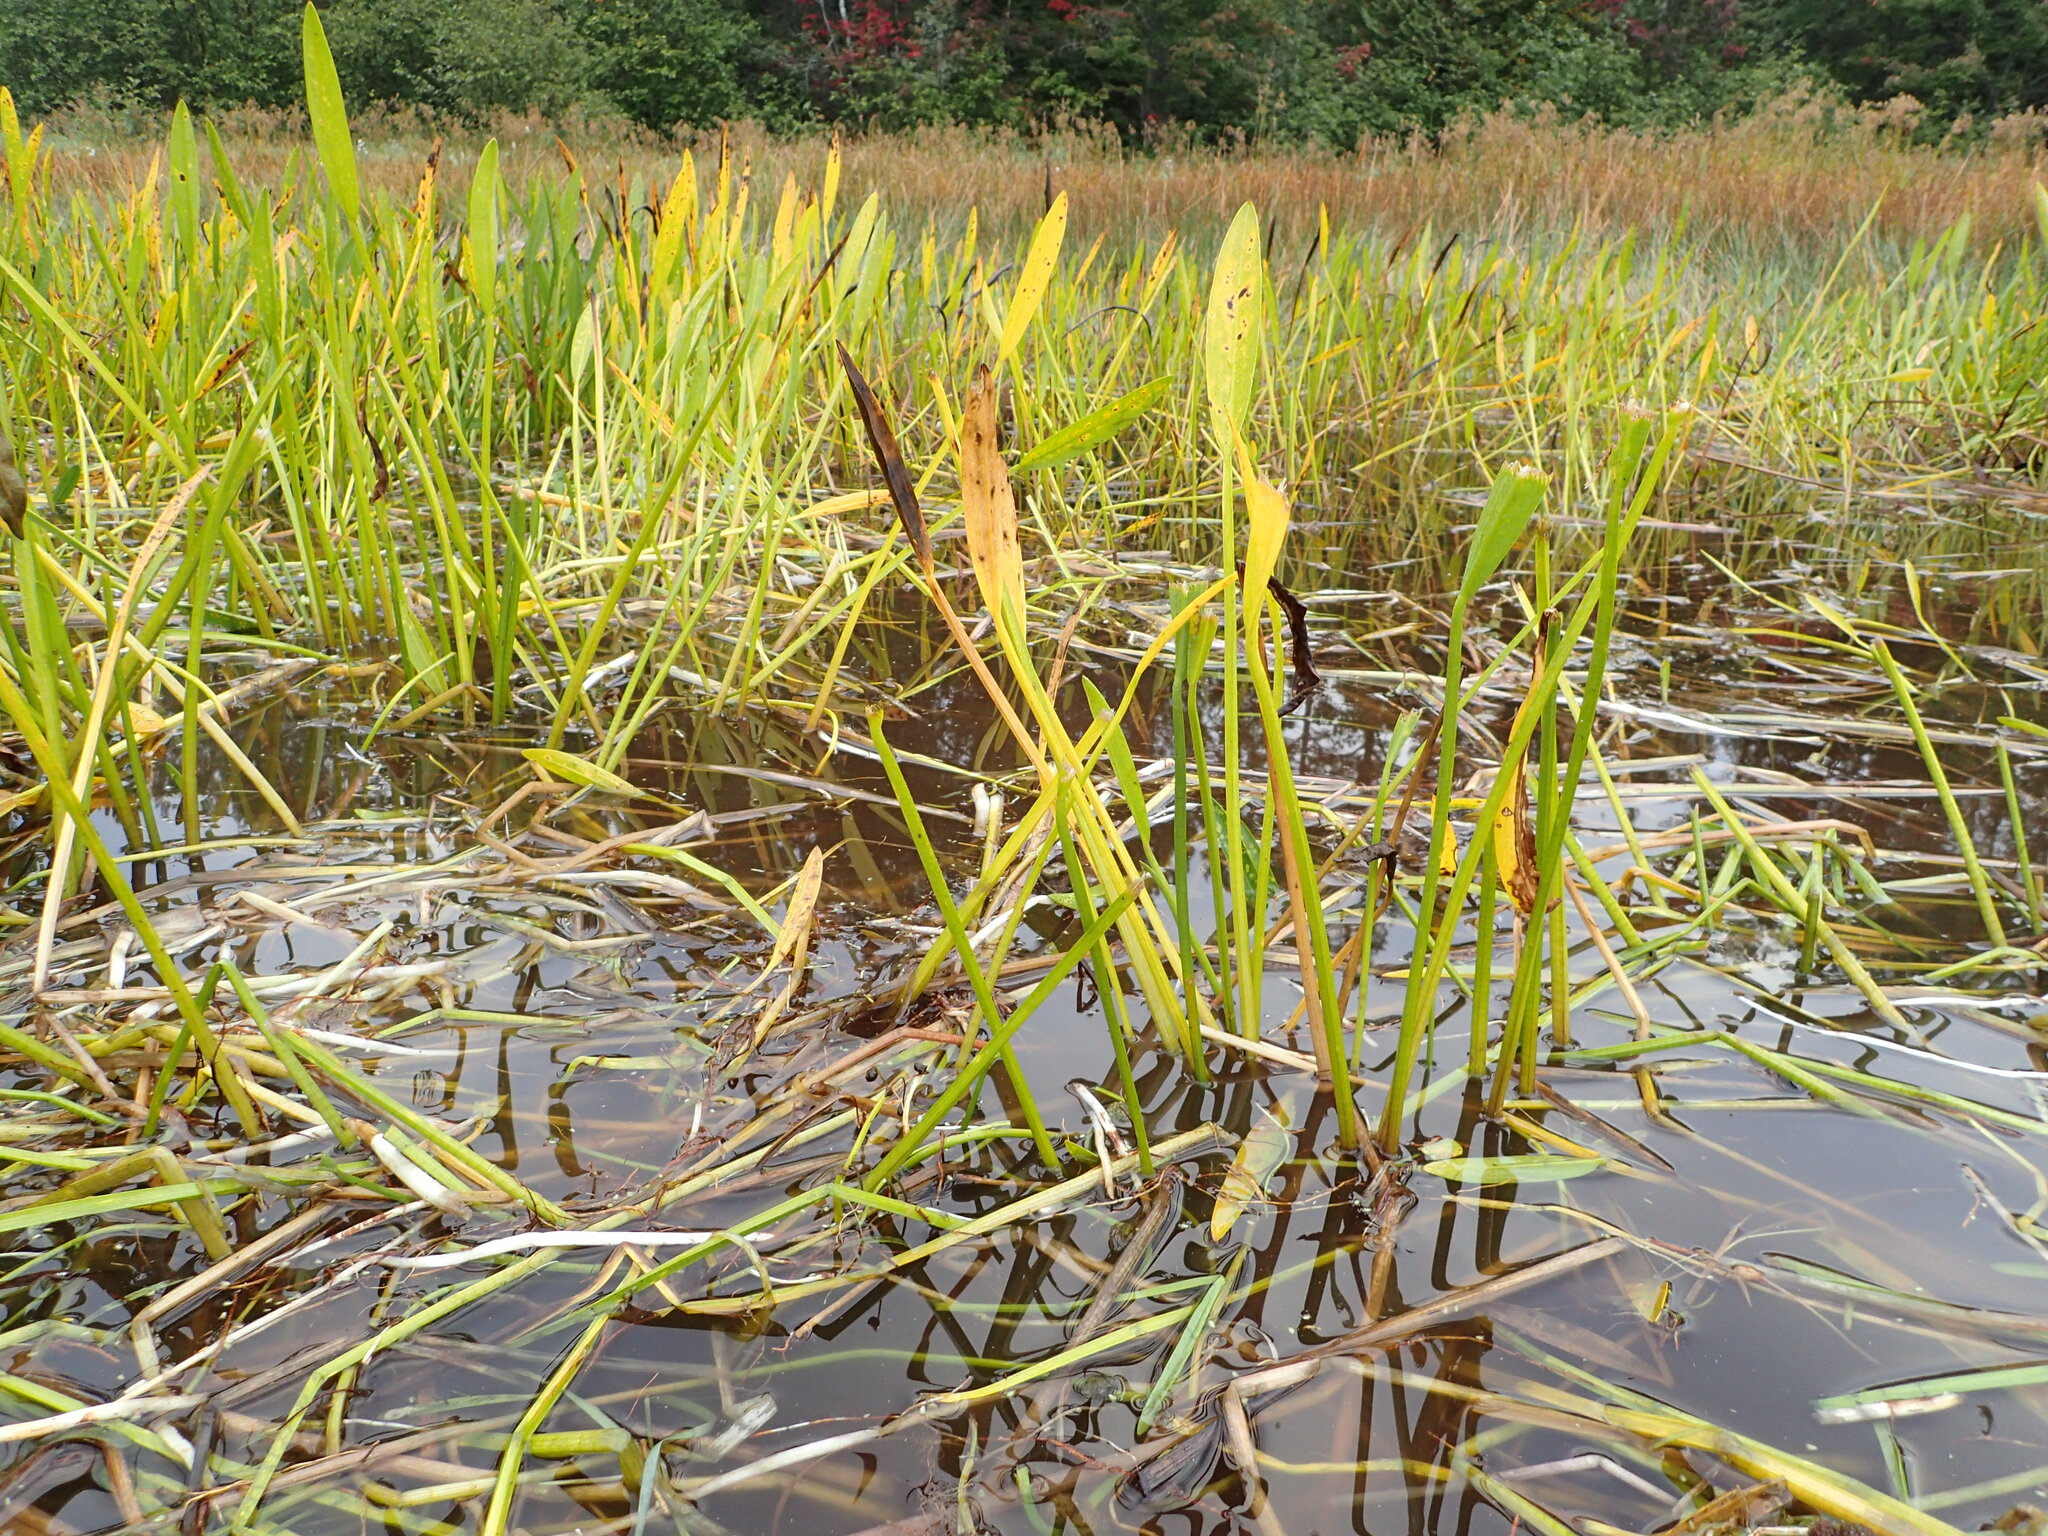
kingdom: Plantae
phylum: Tracheophyta
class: Liliopsida
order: Alismatales
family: Alismataceae
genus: Sagittaria
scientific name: Sagittaria rigida
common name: Canadian arrowhead
